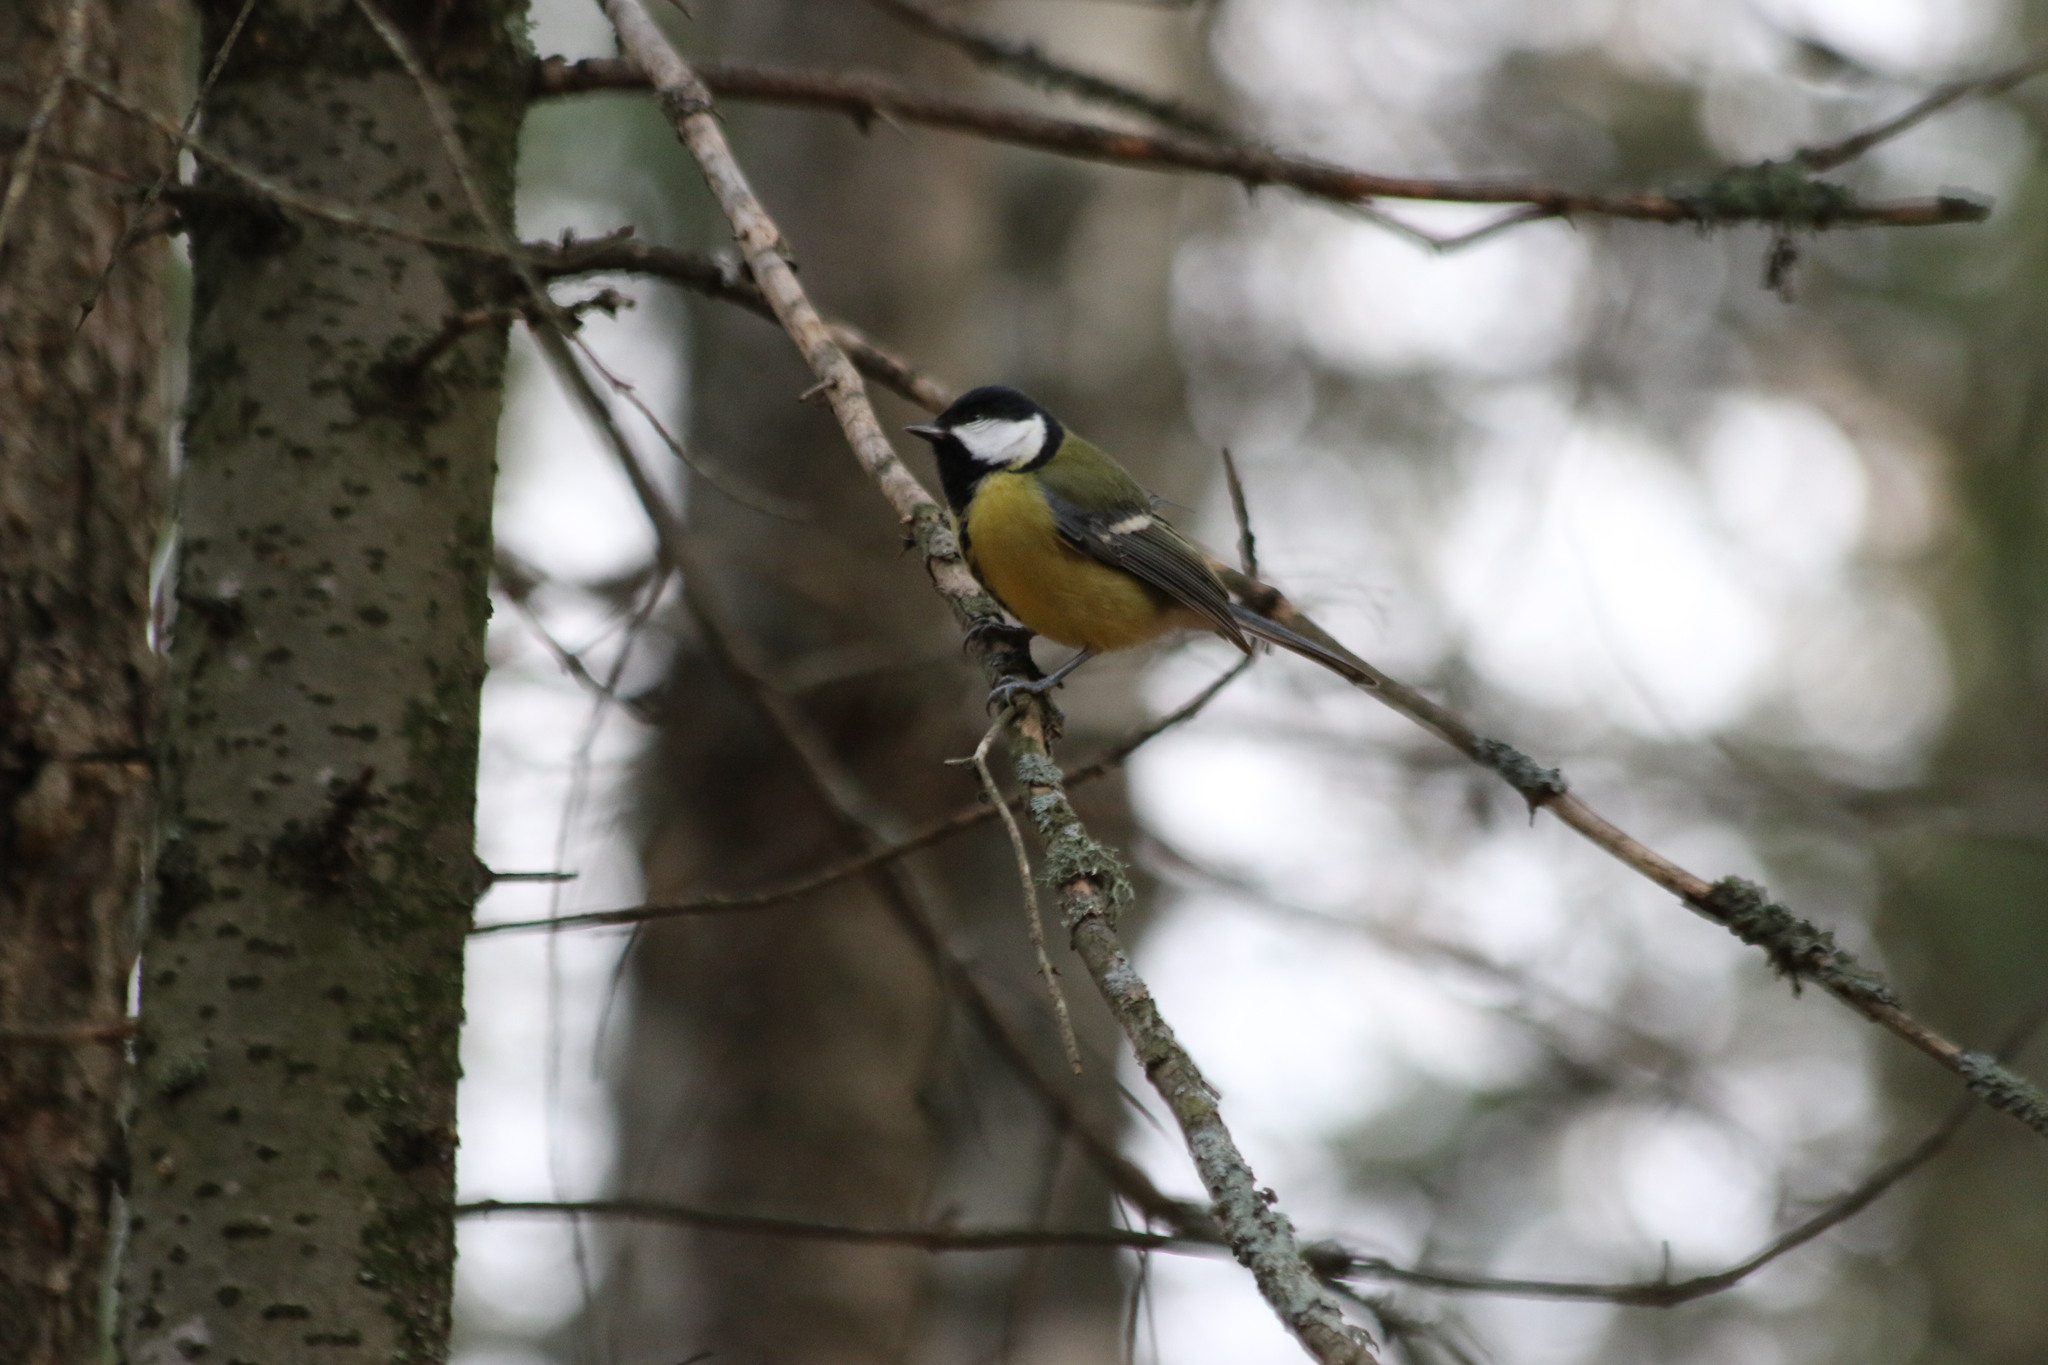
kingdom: Animalia
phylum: Chordata
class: Aves
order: Passeriformes
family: Paridae
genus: Parus
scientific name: Parus major
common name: Great tit
